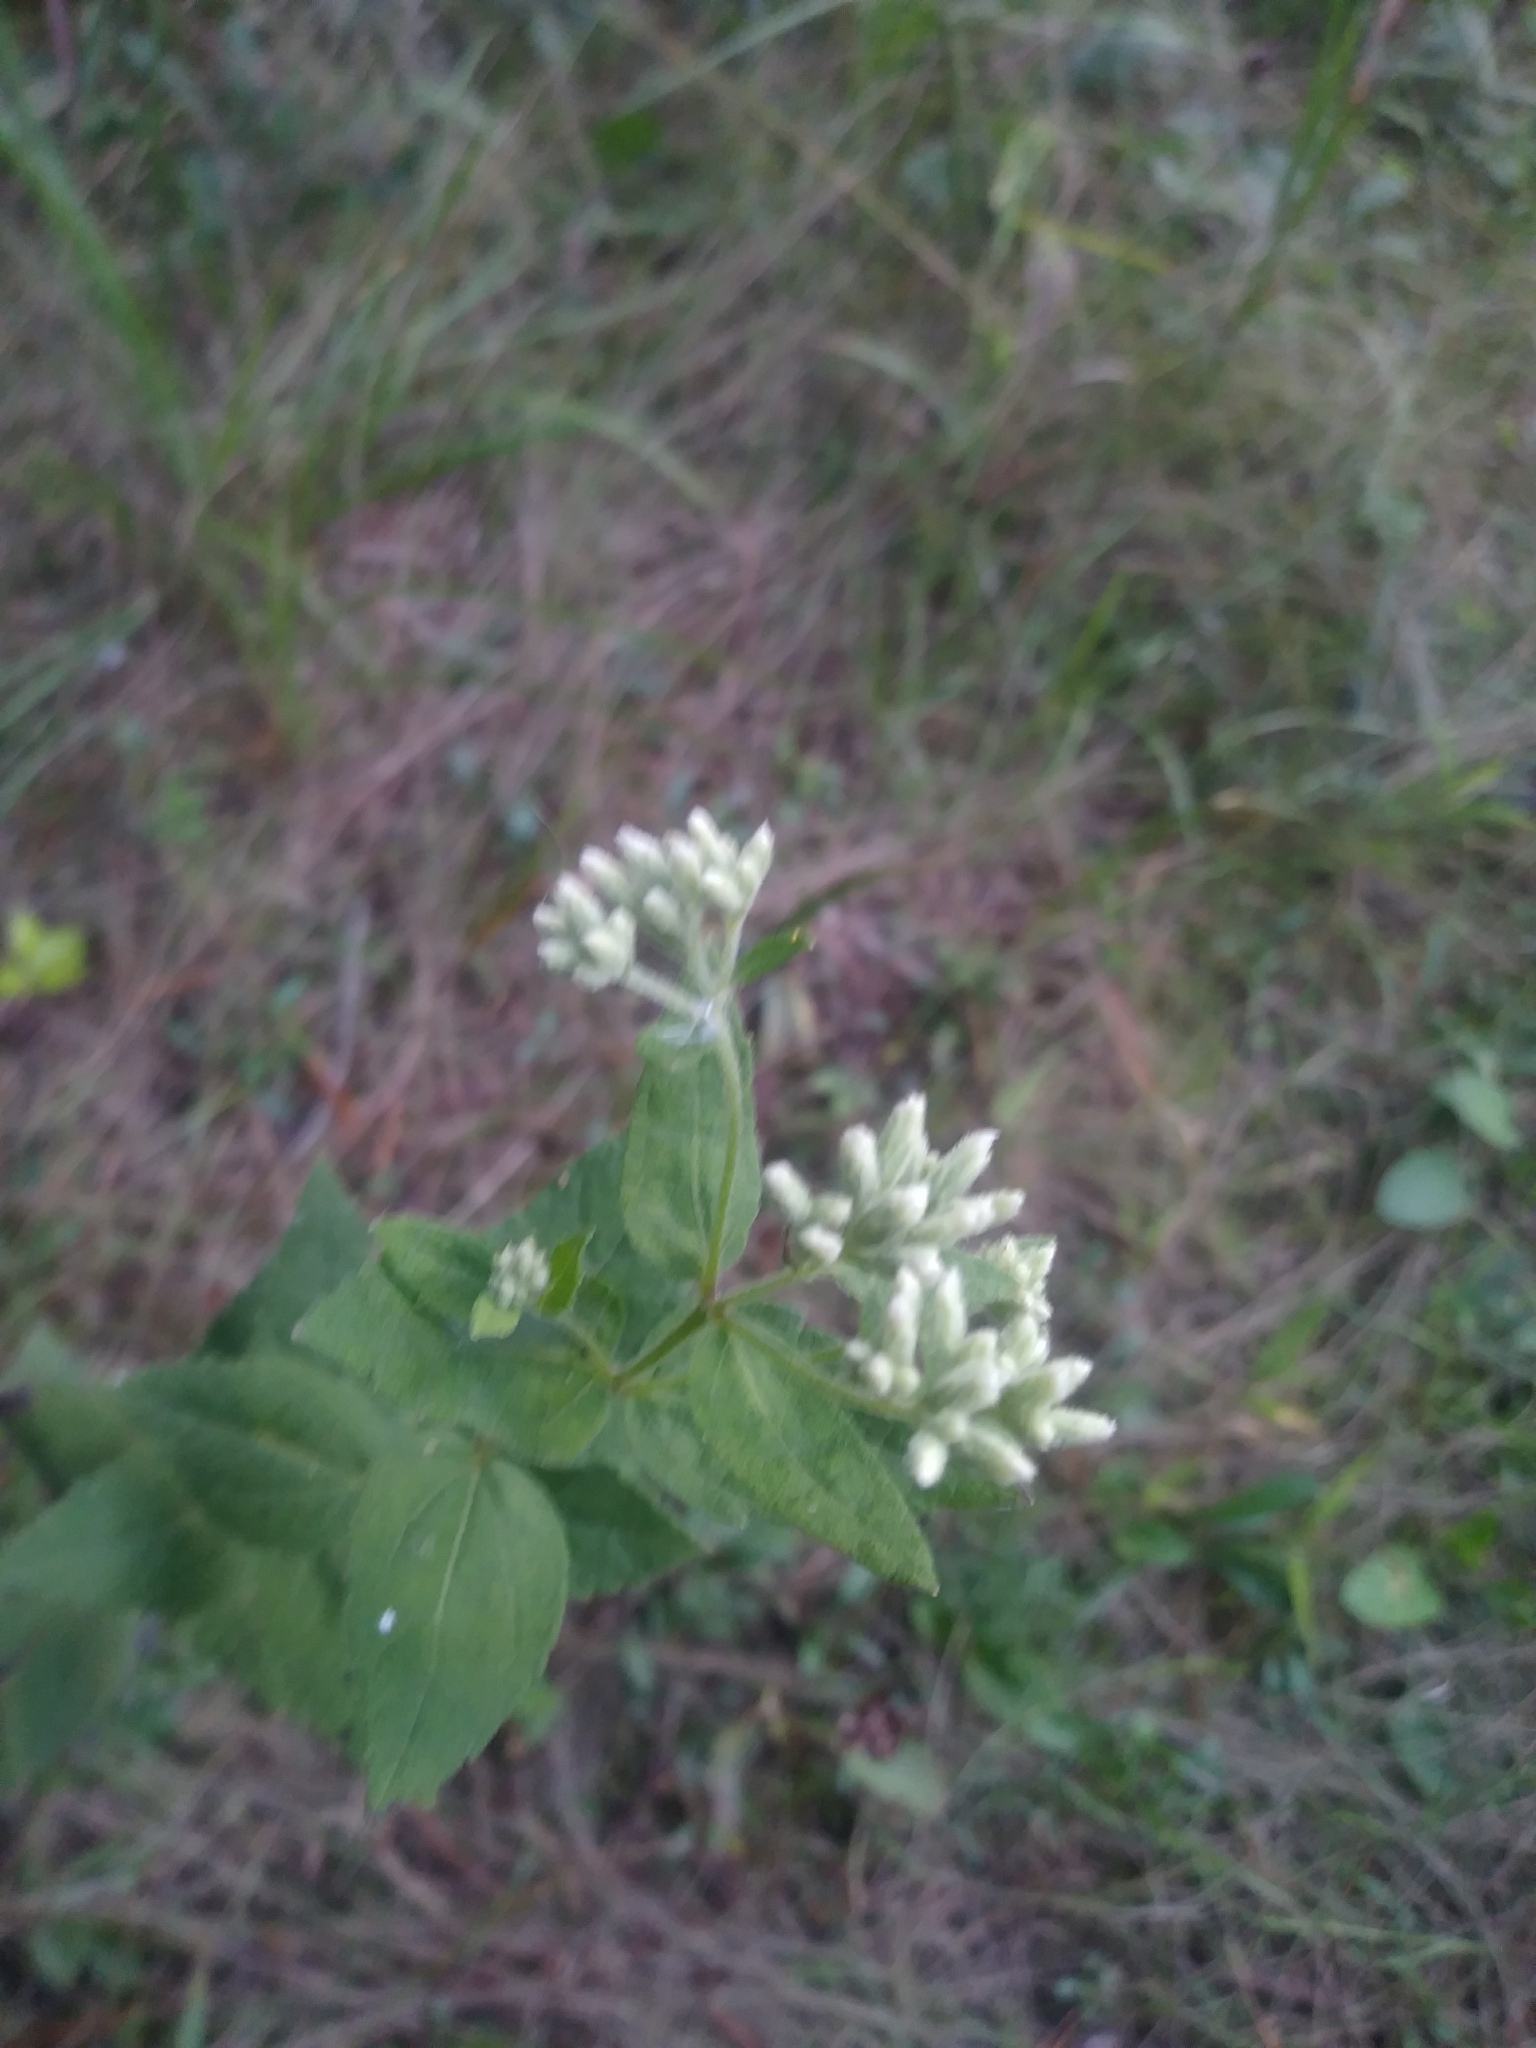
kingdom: Plantae
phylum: Tracheophyta
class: Magnoliopsida
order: Asterales
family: Asteraceae
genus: Eupatorium
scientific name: Eupatorium rotundifolium
